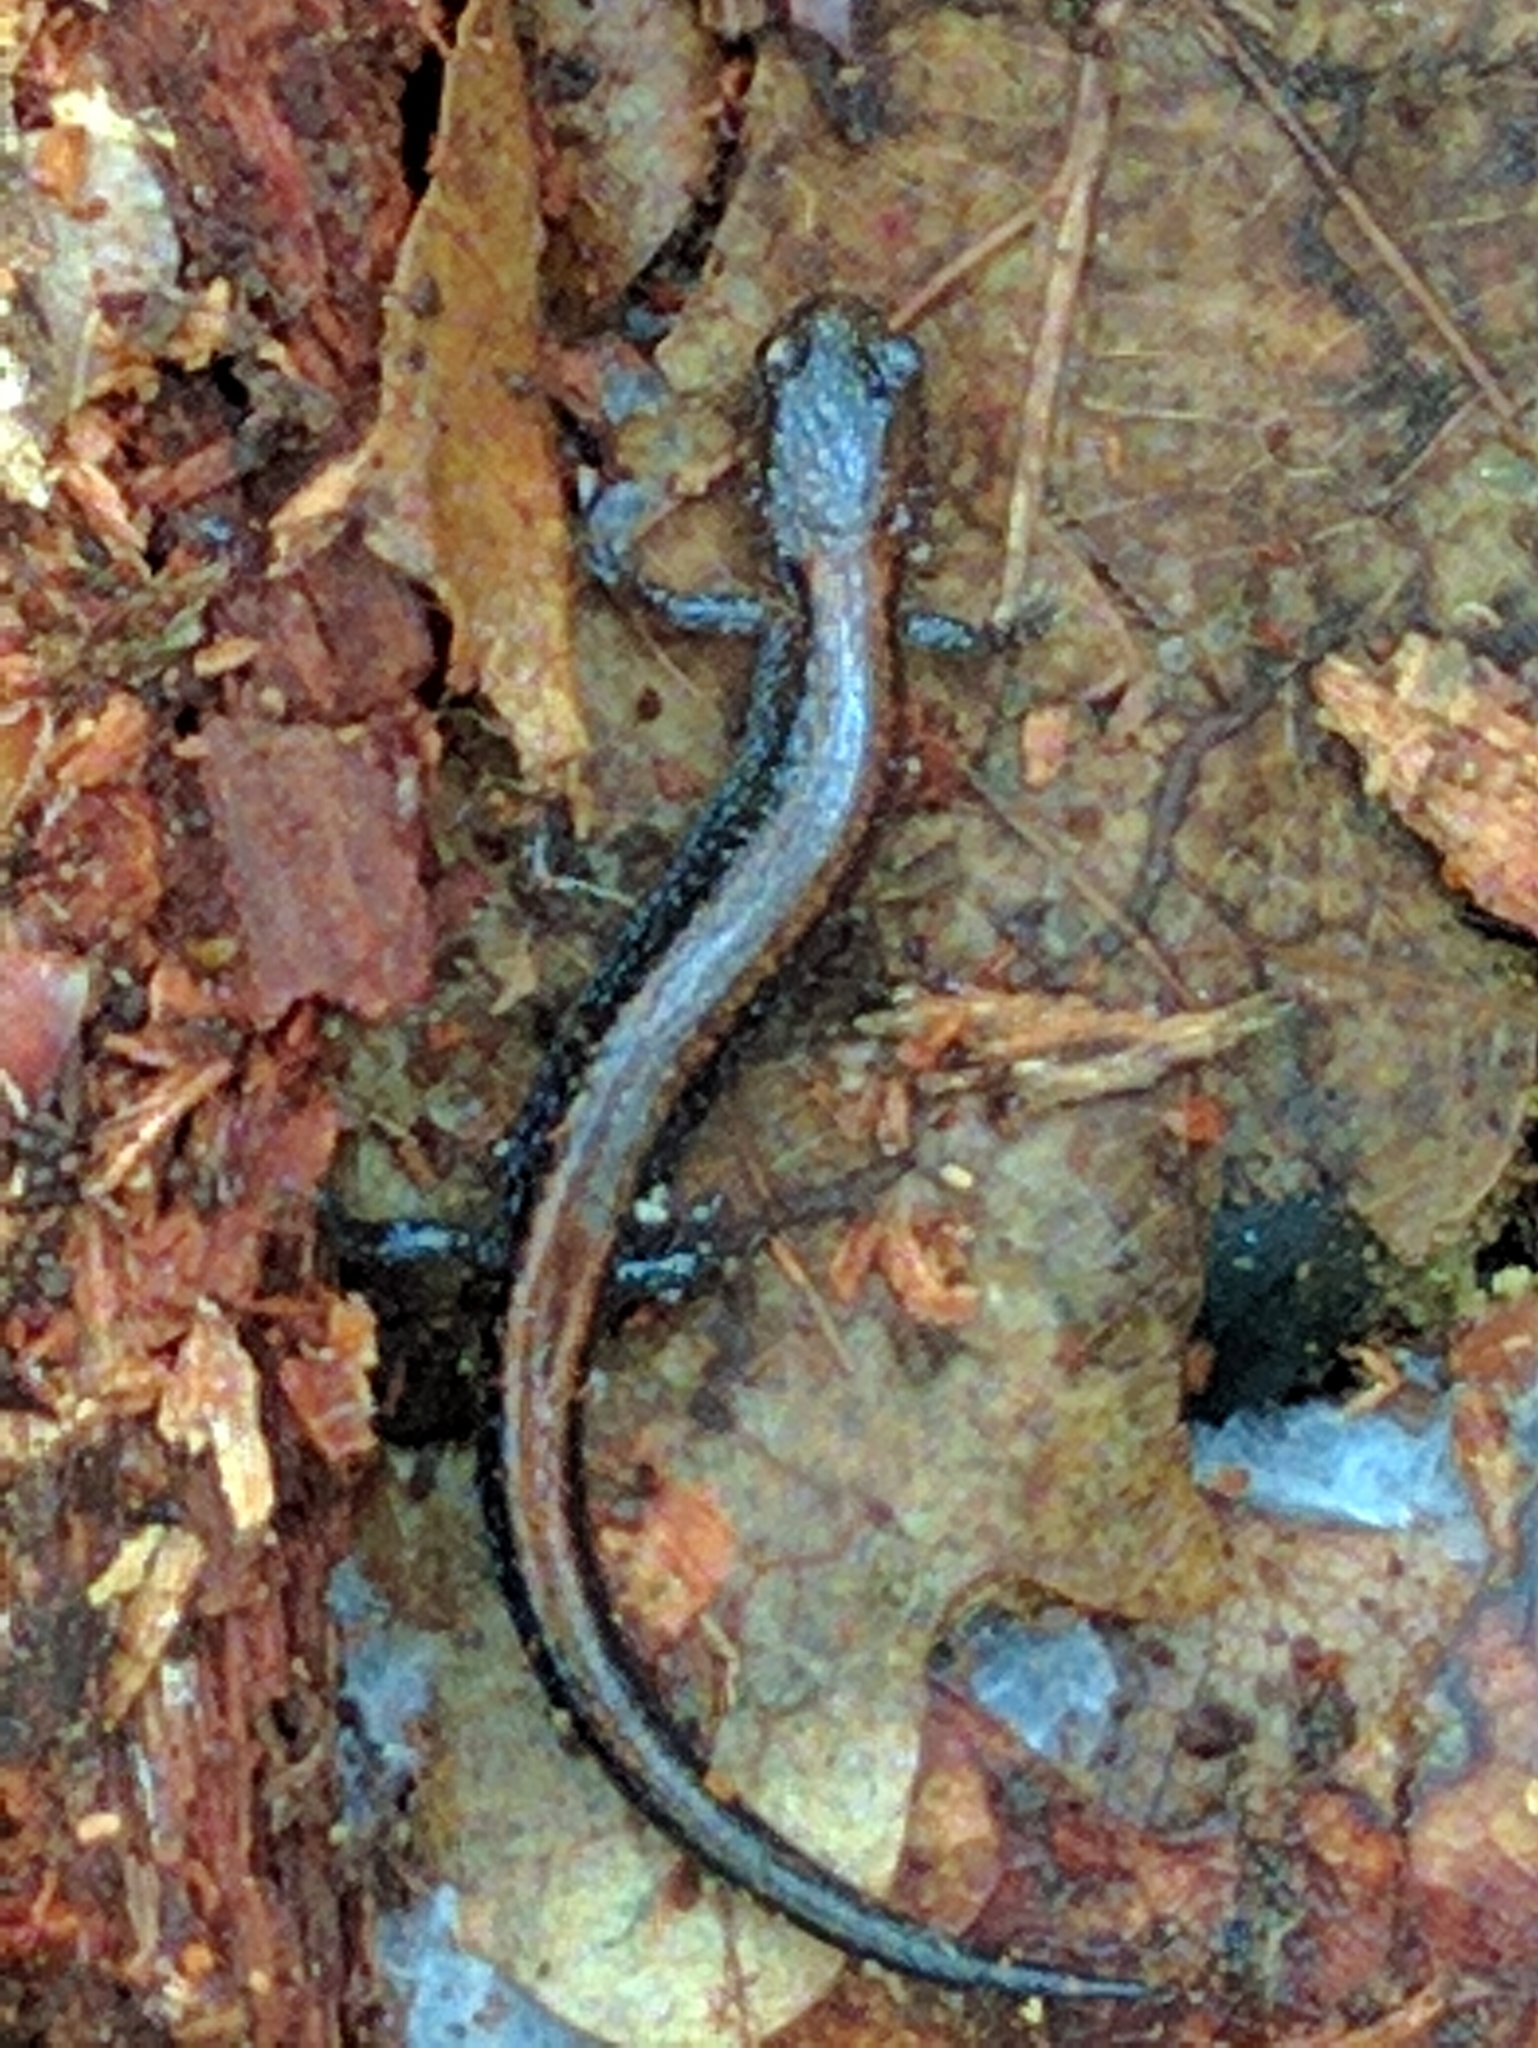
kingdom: Animalia
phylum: Chordata
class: Amphibia
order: Caudata
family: Plethodontidae
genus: Plethodon
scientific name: Plethodon cinereus
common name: Redback salamander
